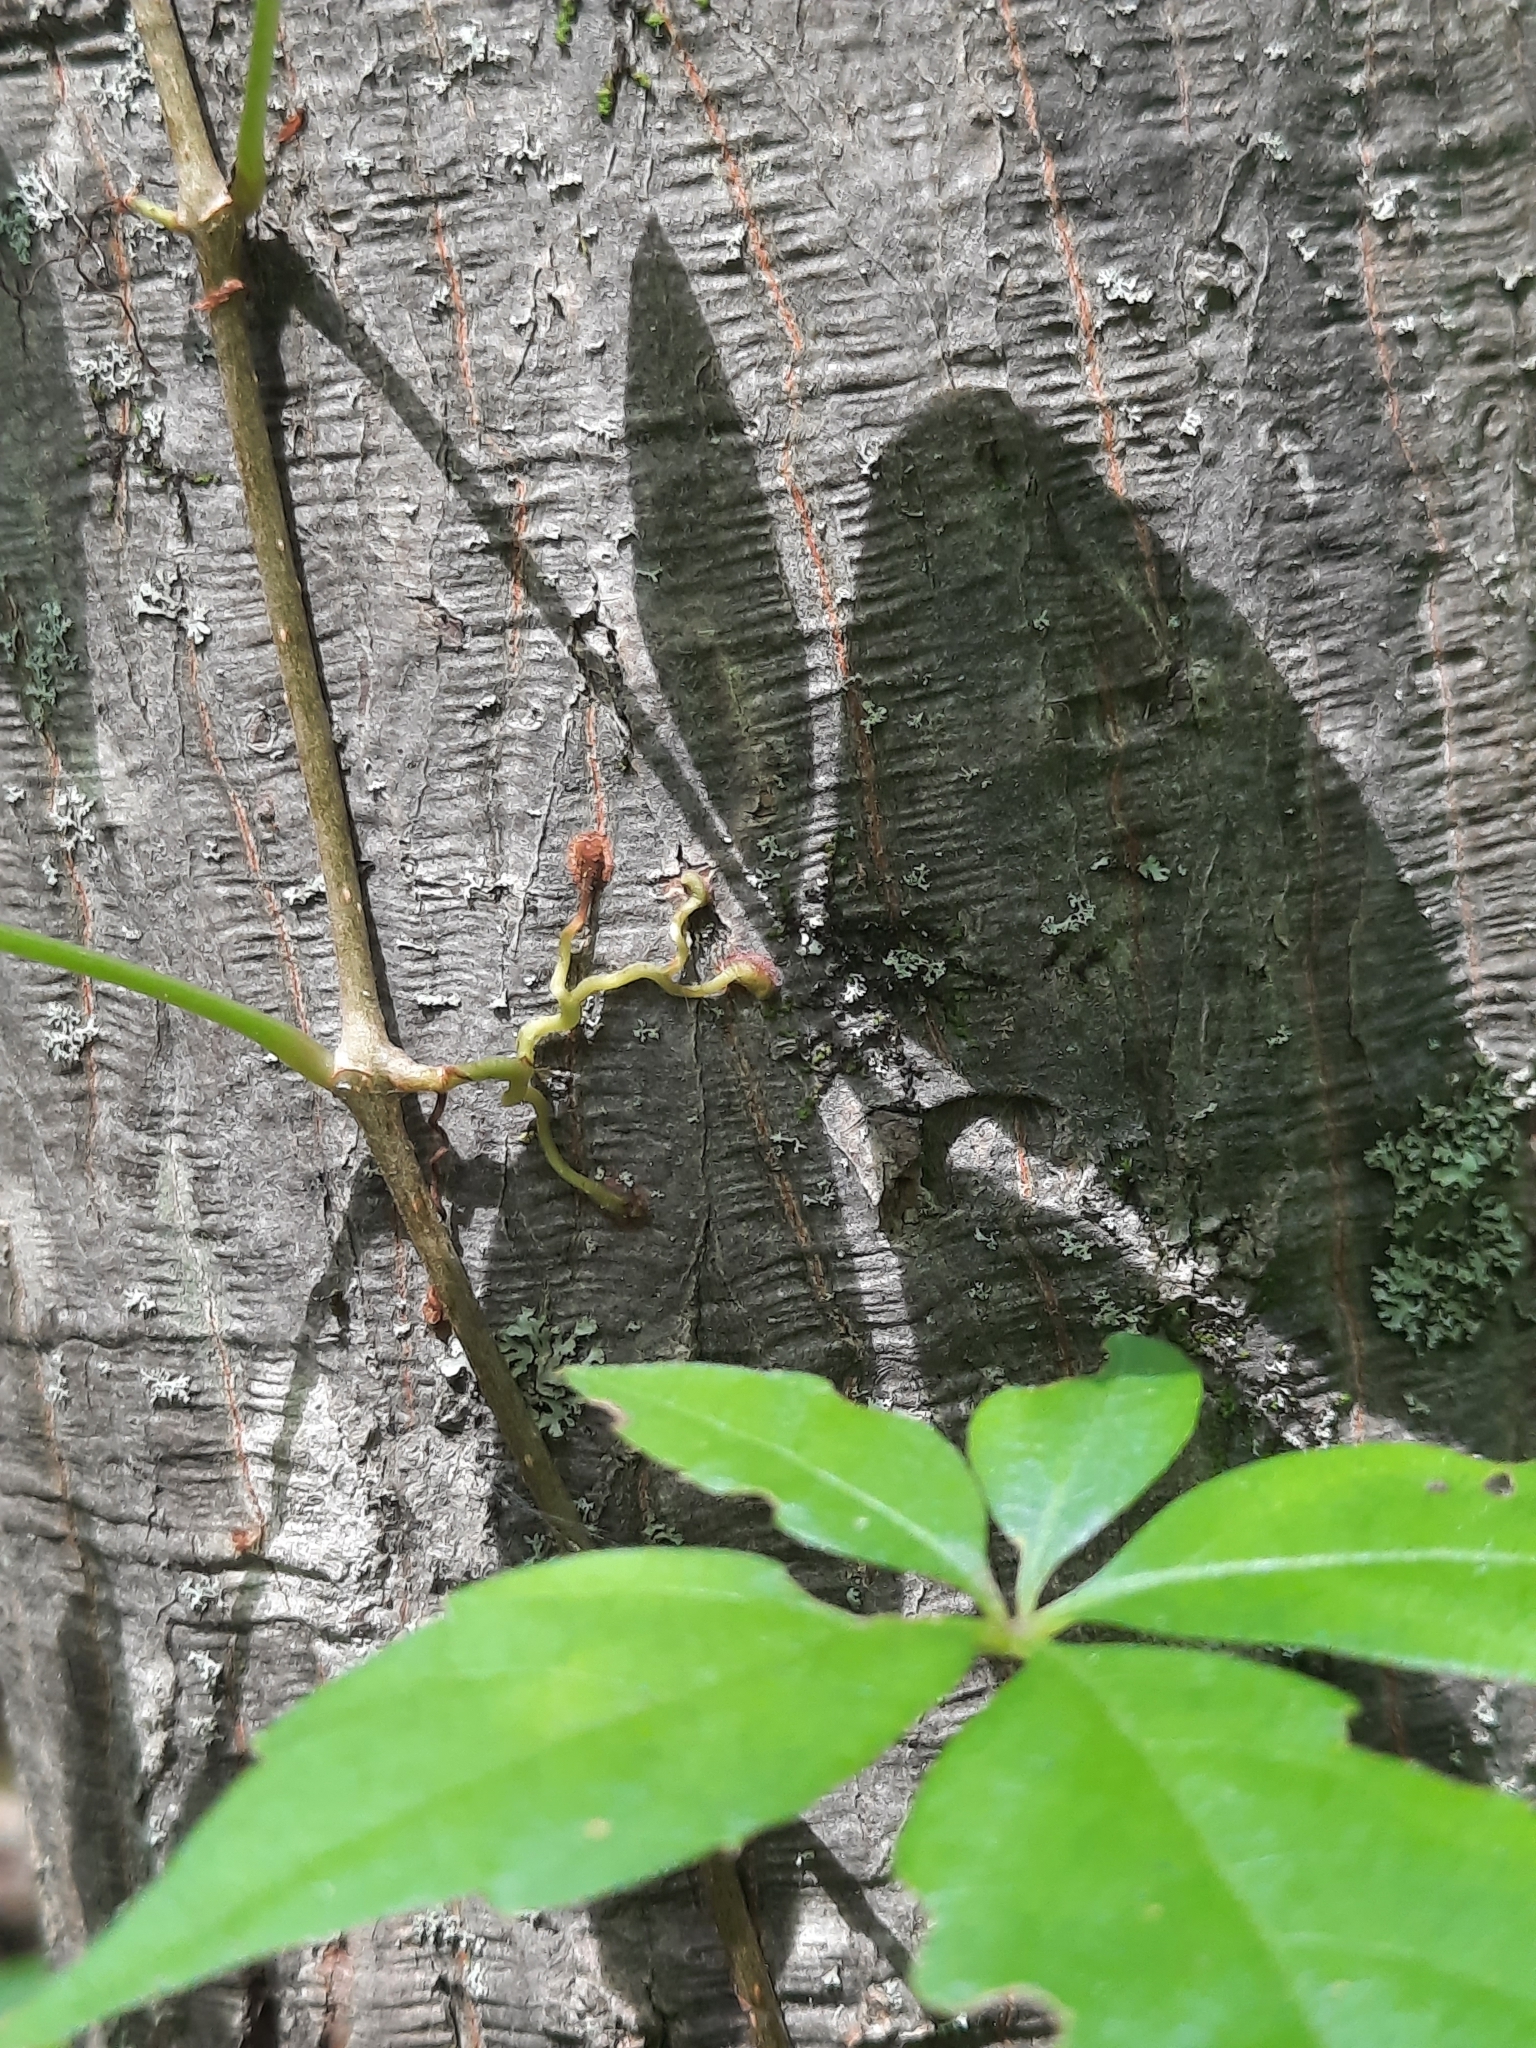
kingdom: Plantae
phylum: Tracheophyta
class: Magnoliopsida
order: Vitales
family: Vitaceae
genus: Parthenocissus
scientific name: Parthenocissus inserta
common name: False virginia-creeper
